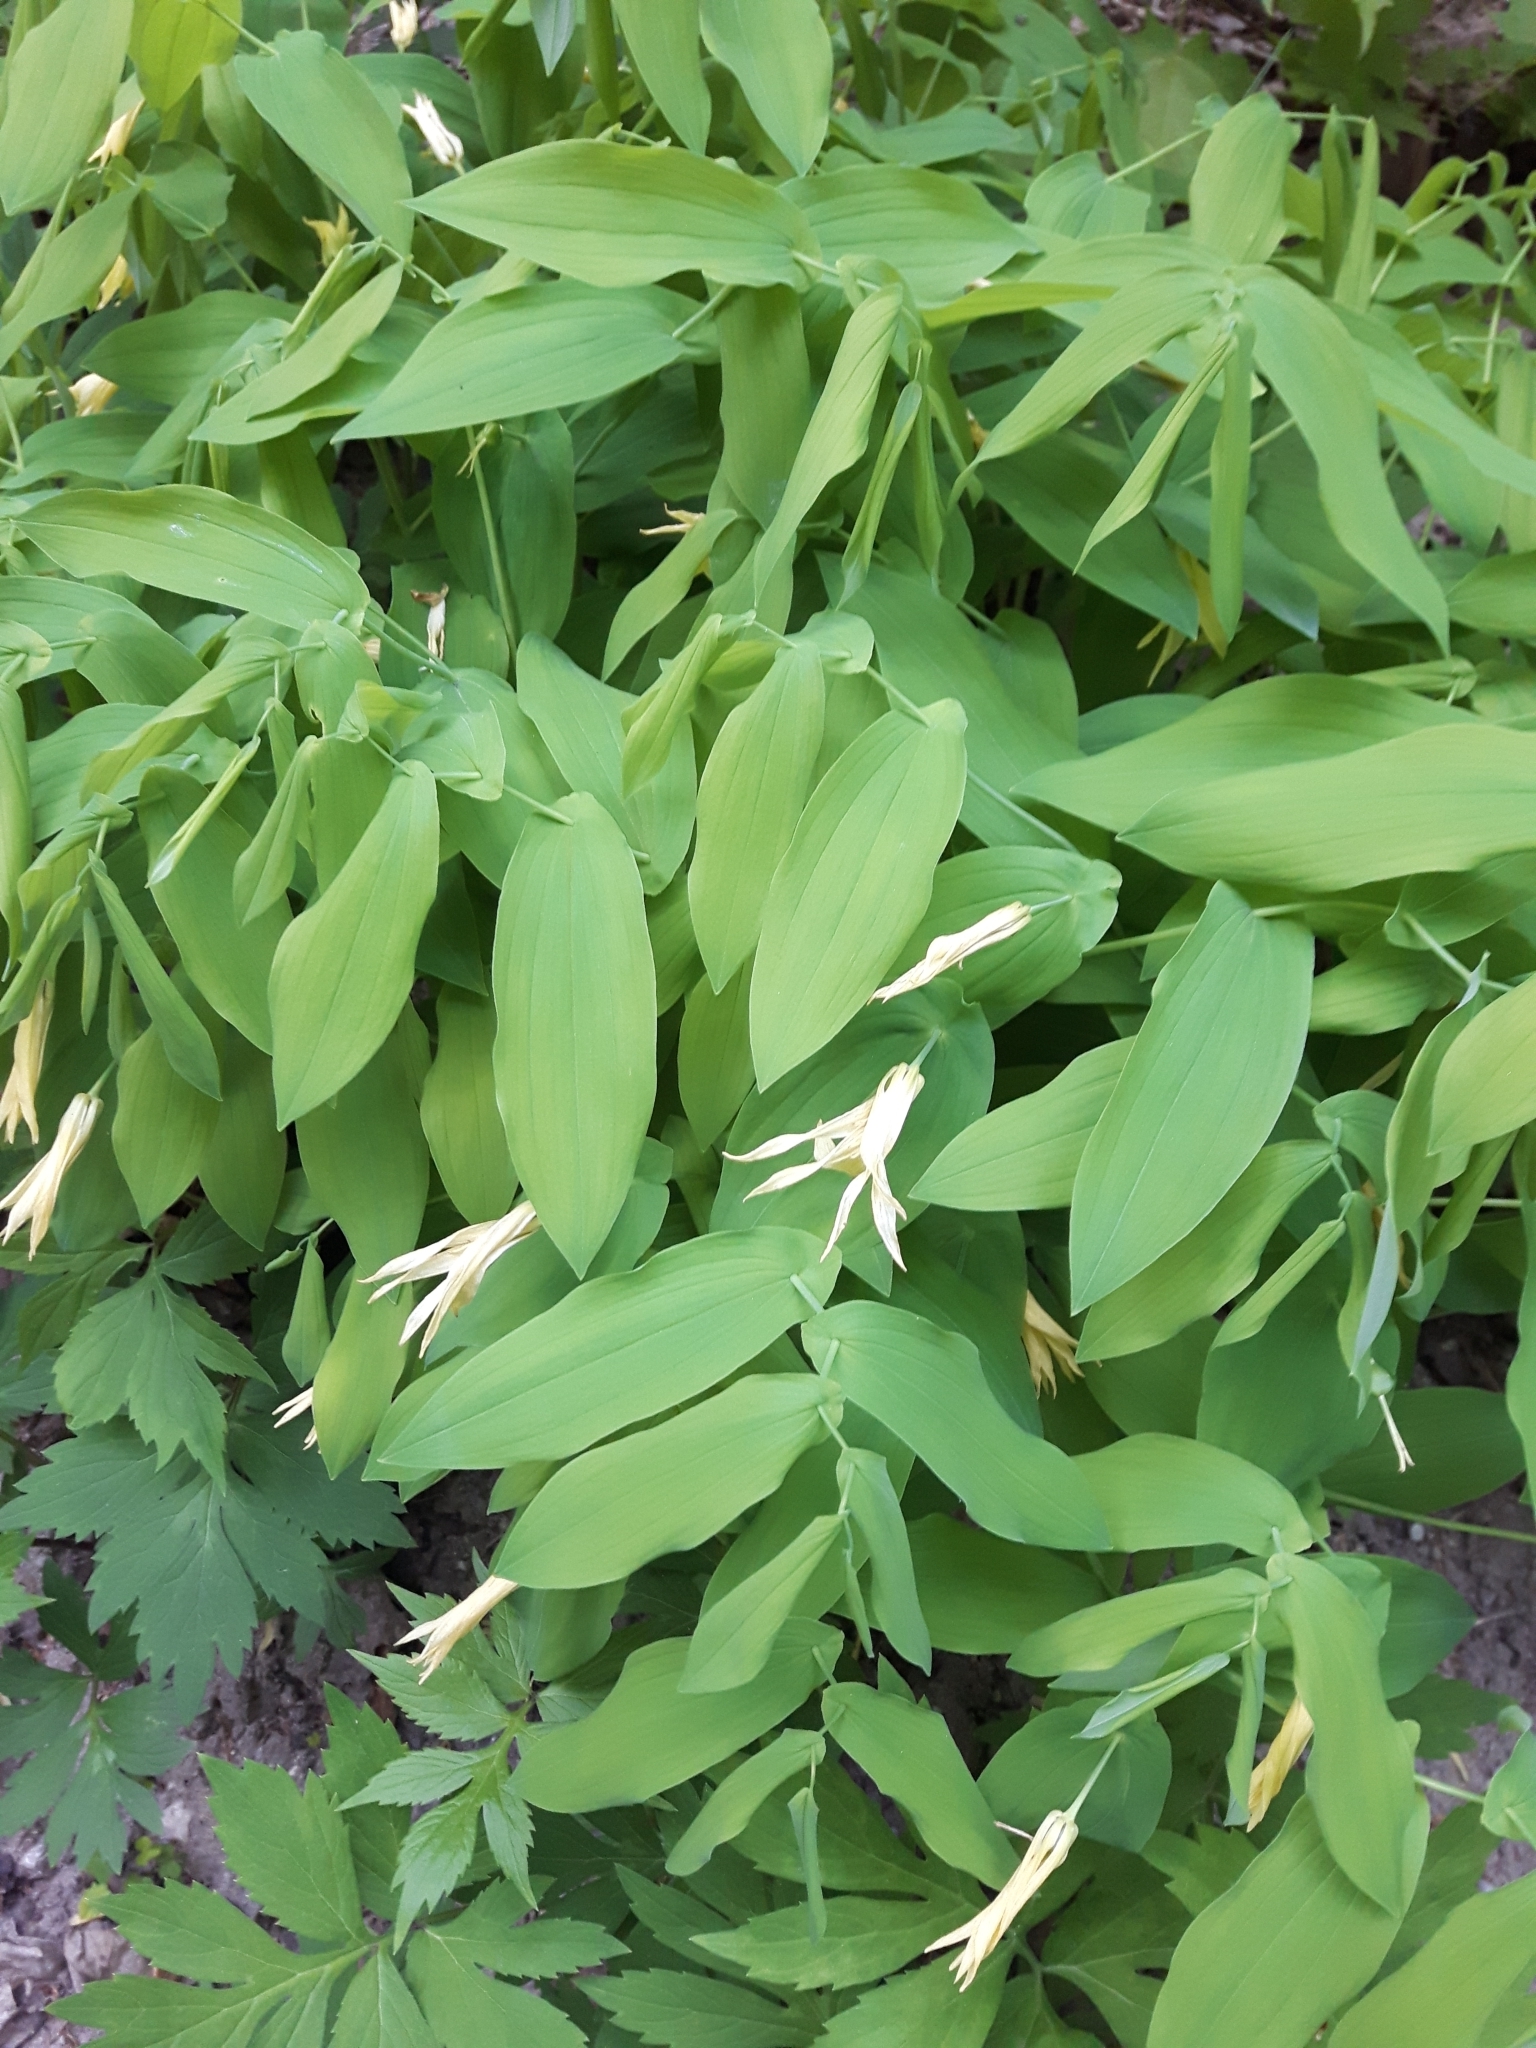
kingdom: Plantae
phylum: Tracheophyta
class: Liliopsida
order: Liliales
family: Colchicaceae
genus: Uvularia
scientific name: Uvularia grandiflora
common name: Bellwort
